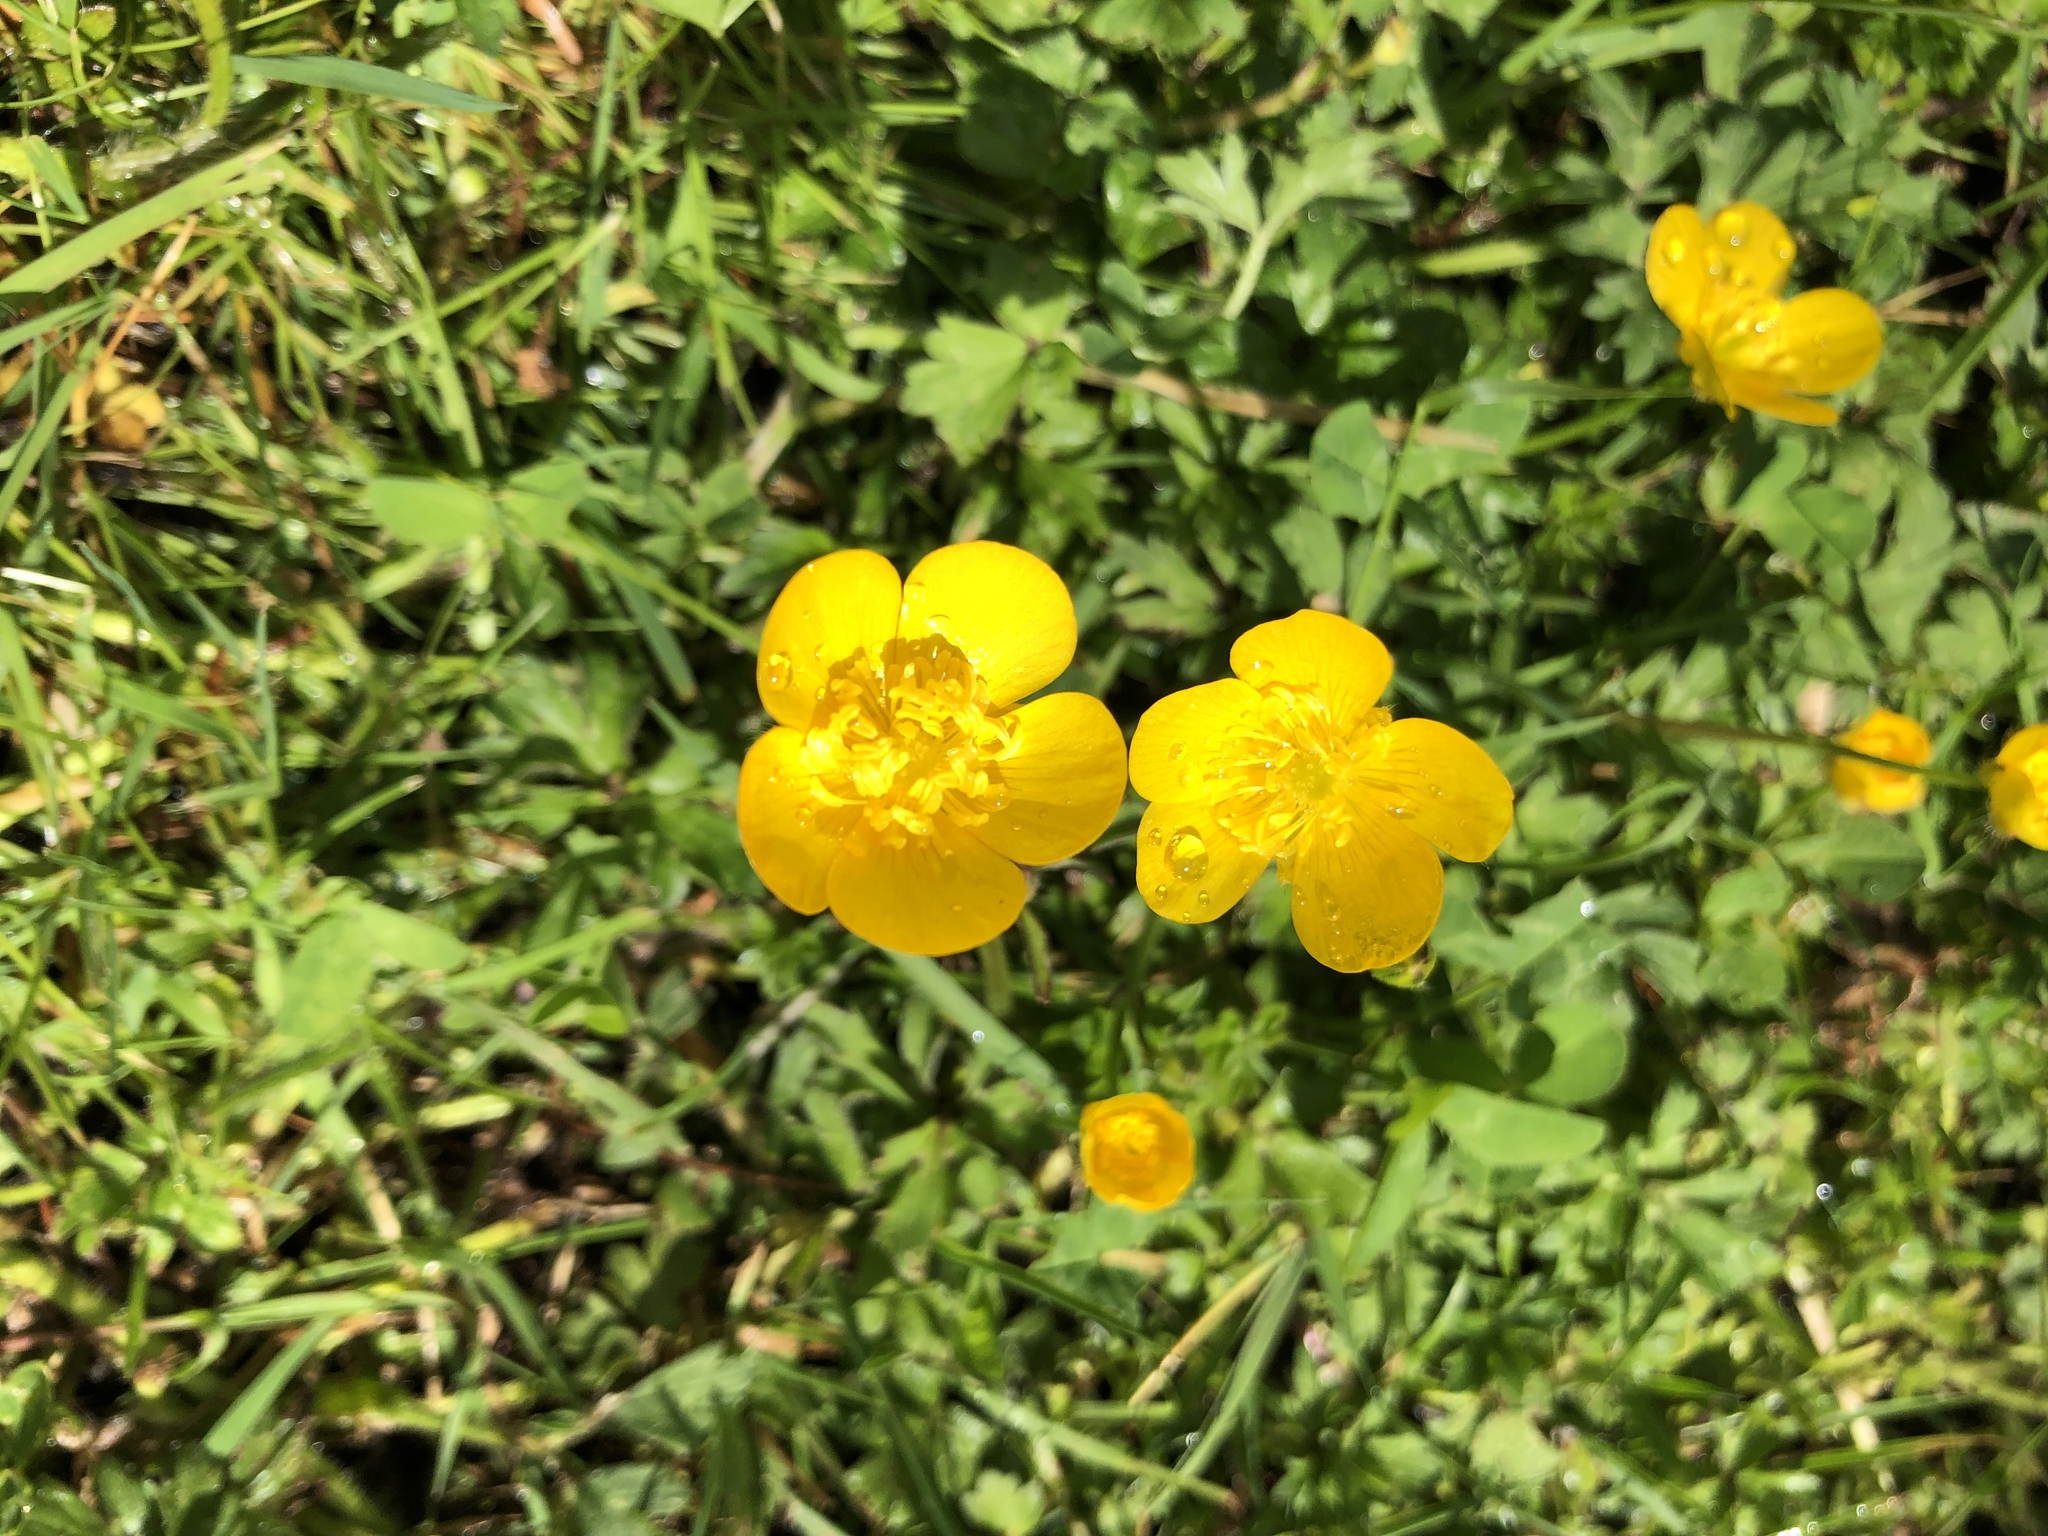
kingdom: Plantae
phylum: Tracheophyta
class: Magnoliopsida
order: Ranunculales
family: Ranunculaceae
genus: Ranunculus
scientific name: Ranunculus repens
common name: Creeping buttercup
